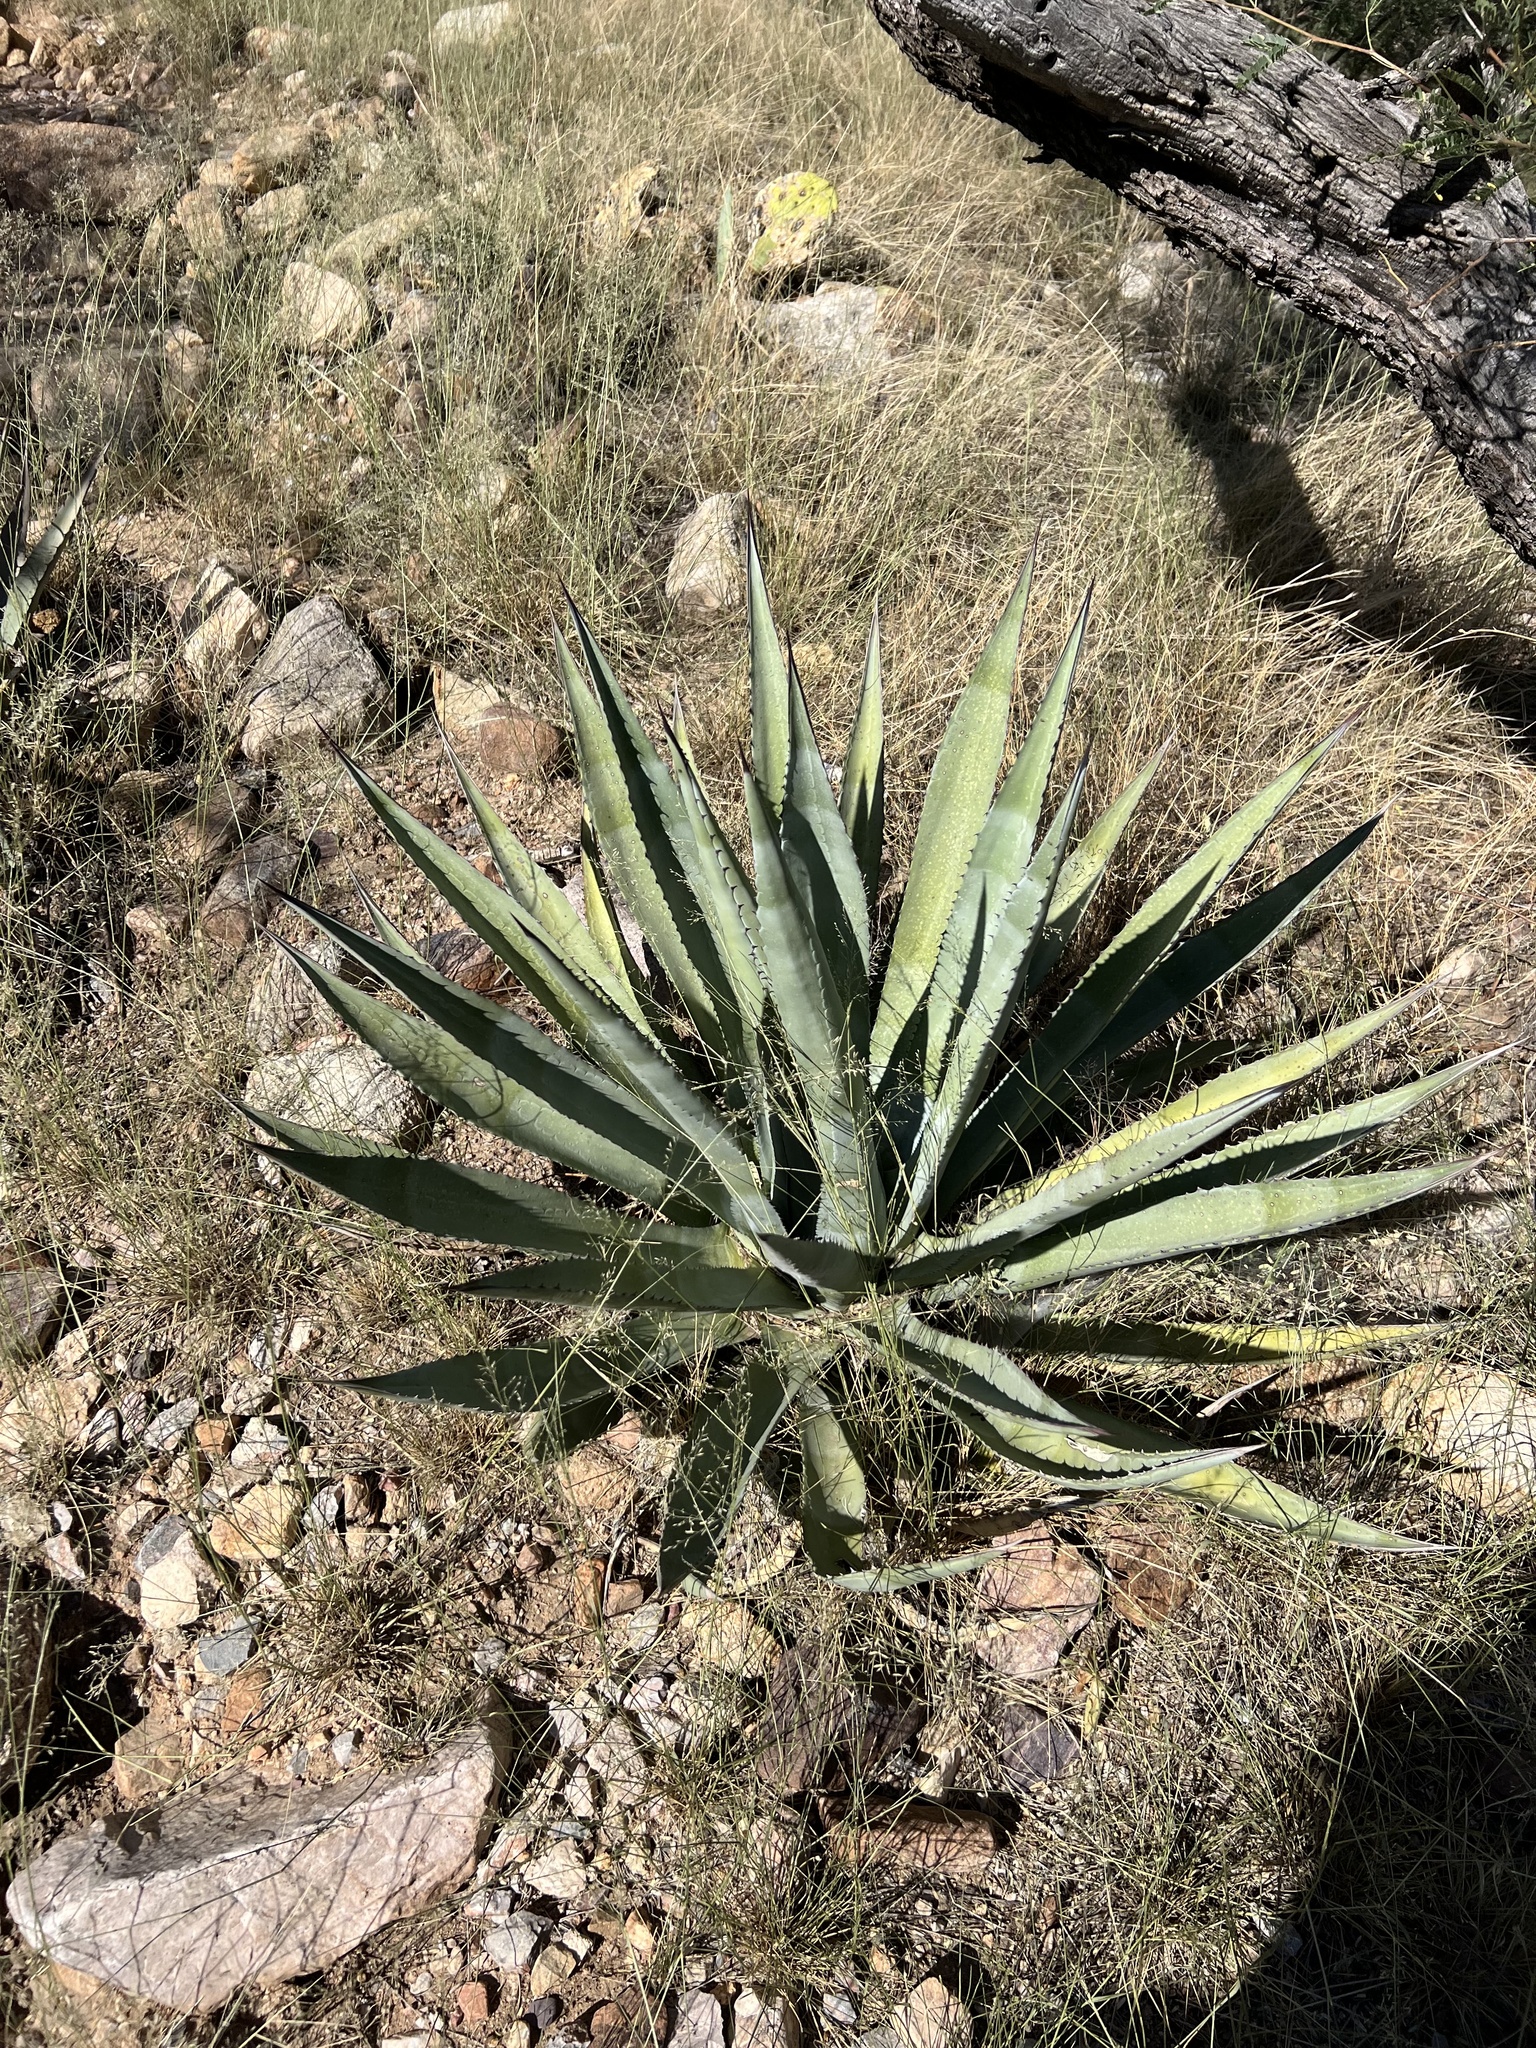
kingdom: Plantae
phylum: Tracheophyta
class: Liliopsida
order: Asparagales
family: Asparagaceae
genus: Agave
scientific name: Agave palmeri
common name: Palmer agave
